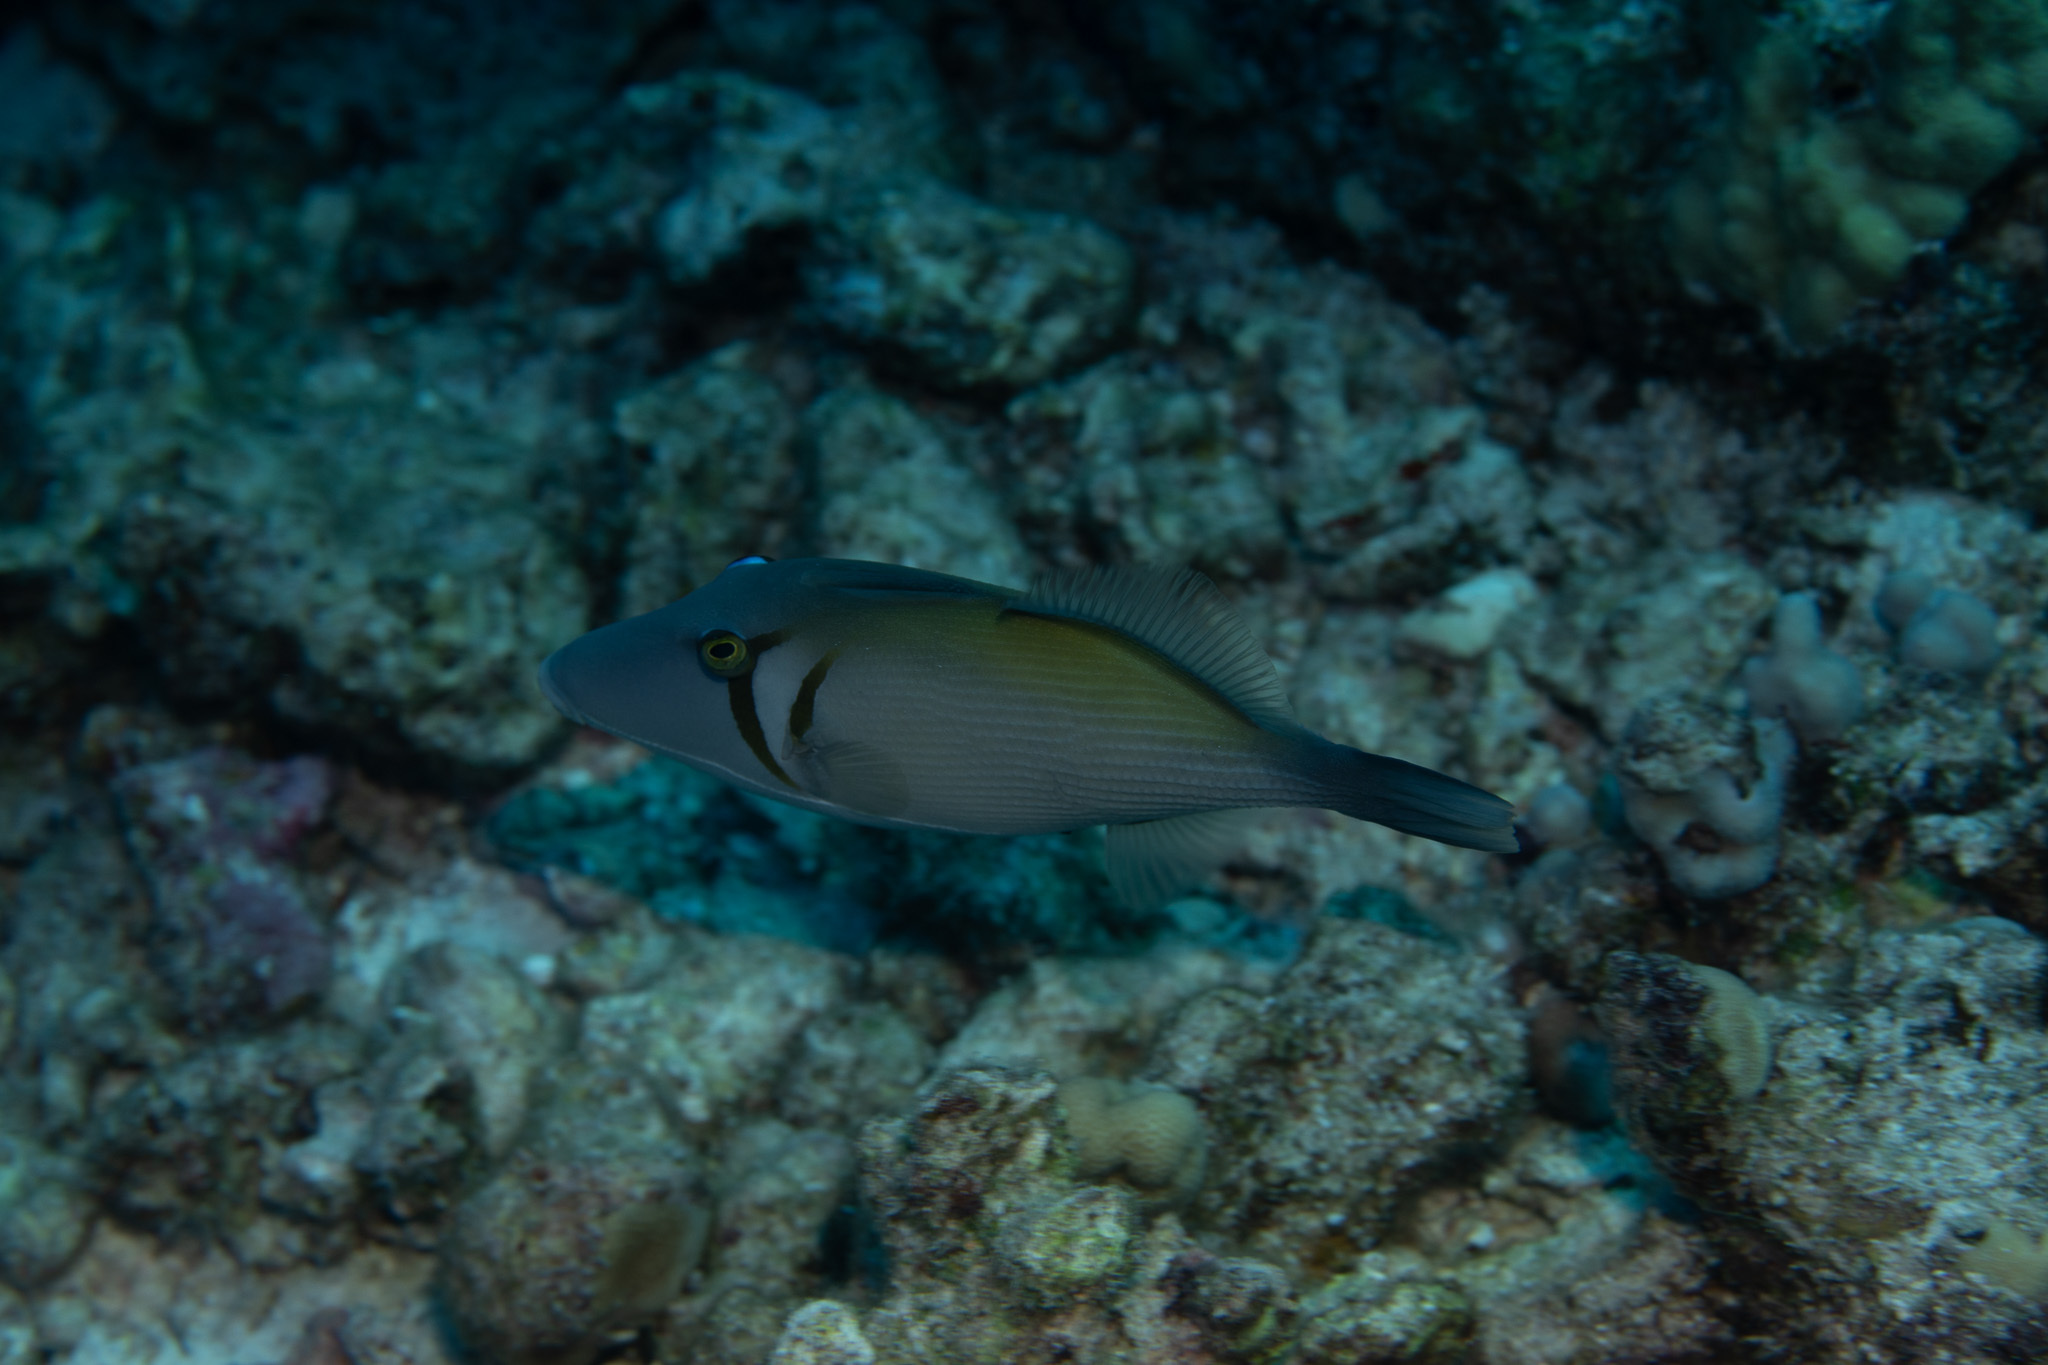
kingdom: Animalia
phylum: Chordata
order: Tetraodontiformes
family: Balistidae
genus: Sufflamen
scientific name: Sufflamen bursa
